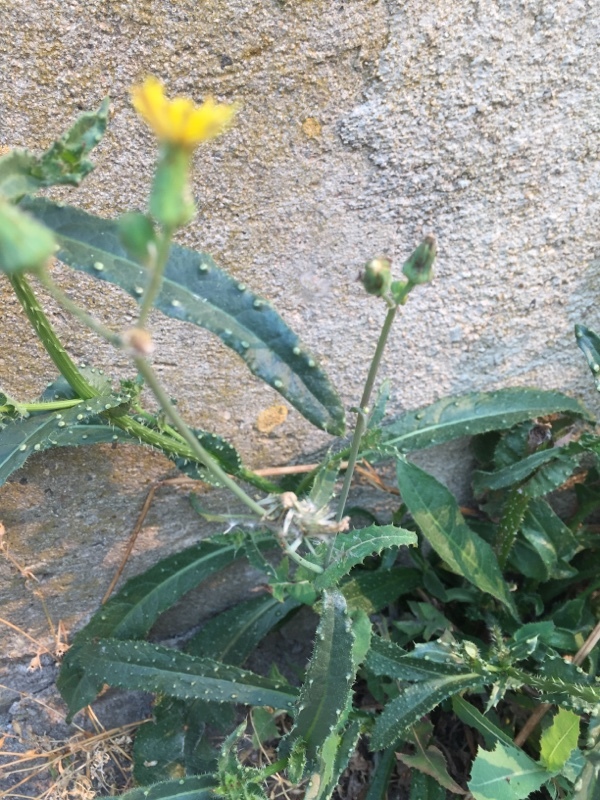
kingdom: Plantae
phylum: Tracheophyta
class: Magnoliopsida
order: Asterales
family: Asteraceae
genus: Helminthotheca
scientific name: Helminthotheca echioides
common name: Ox-tongue
